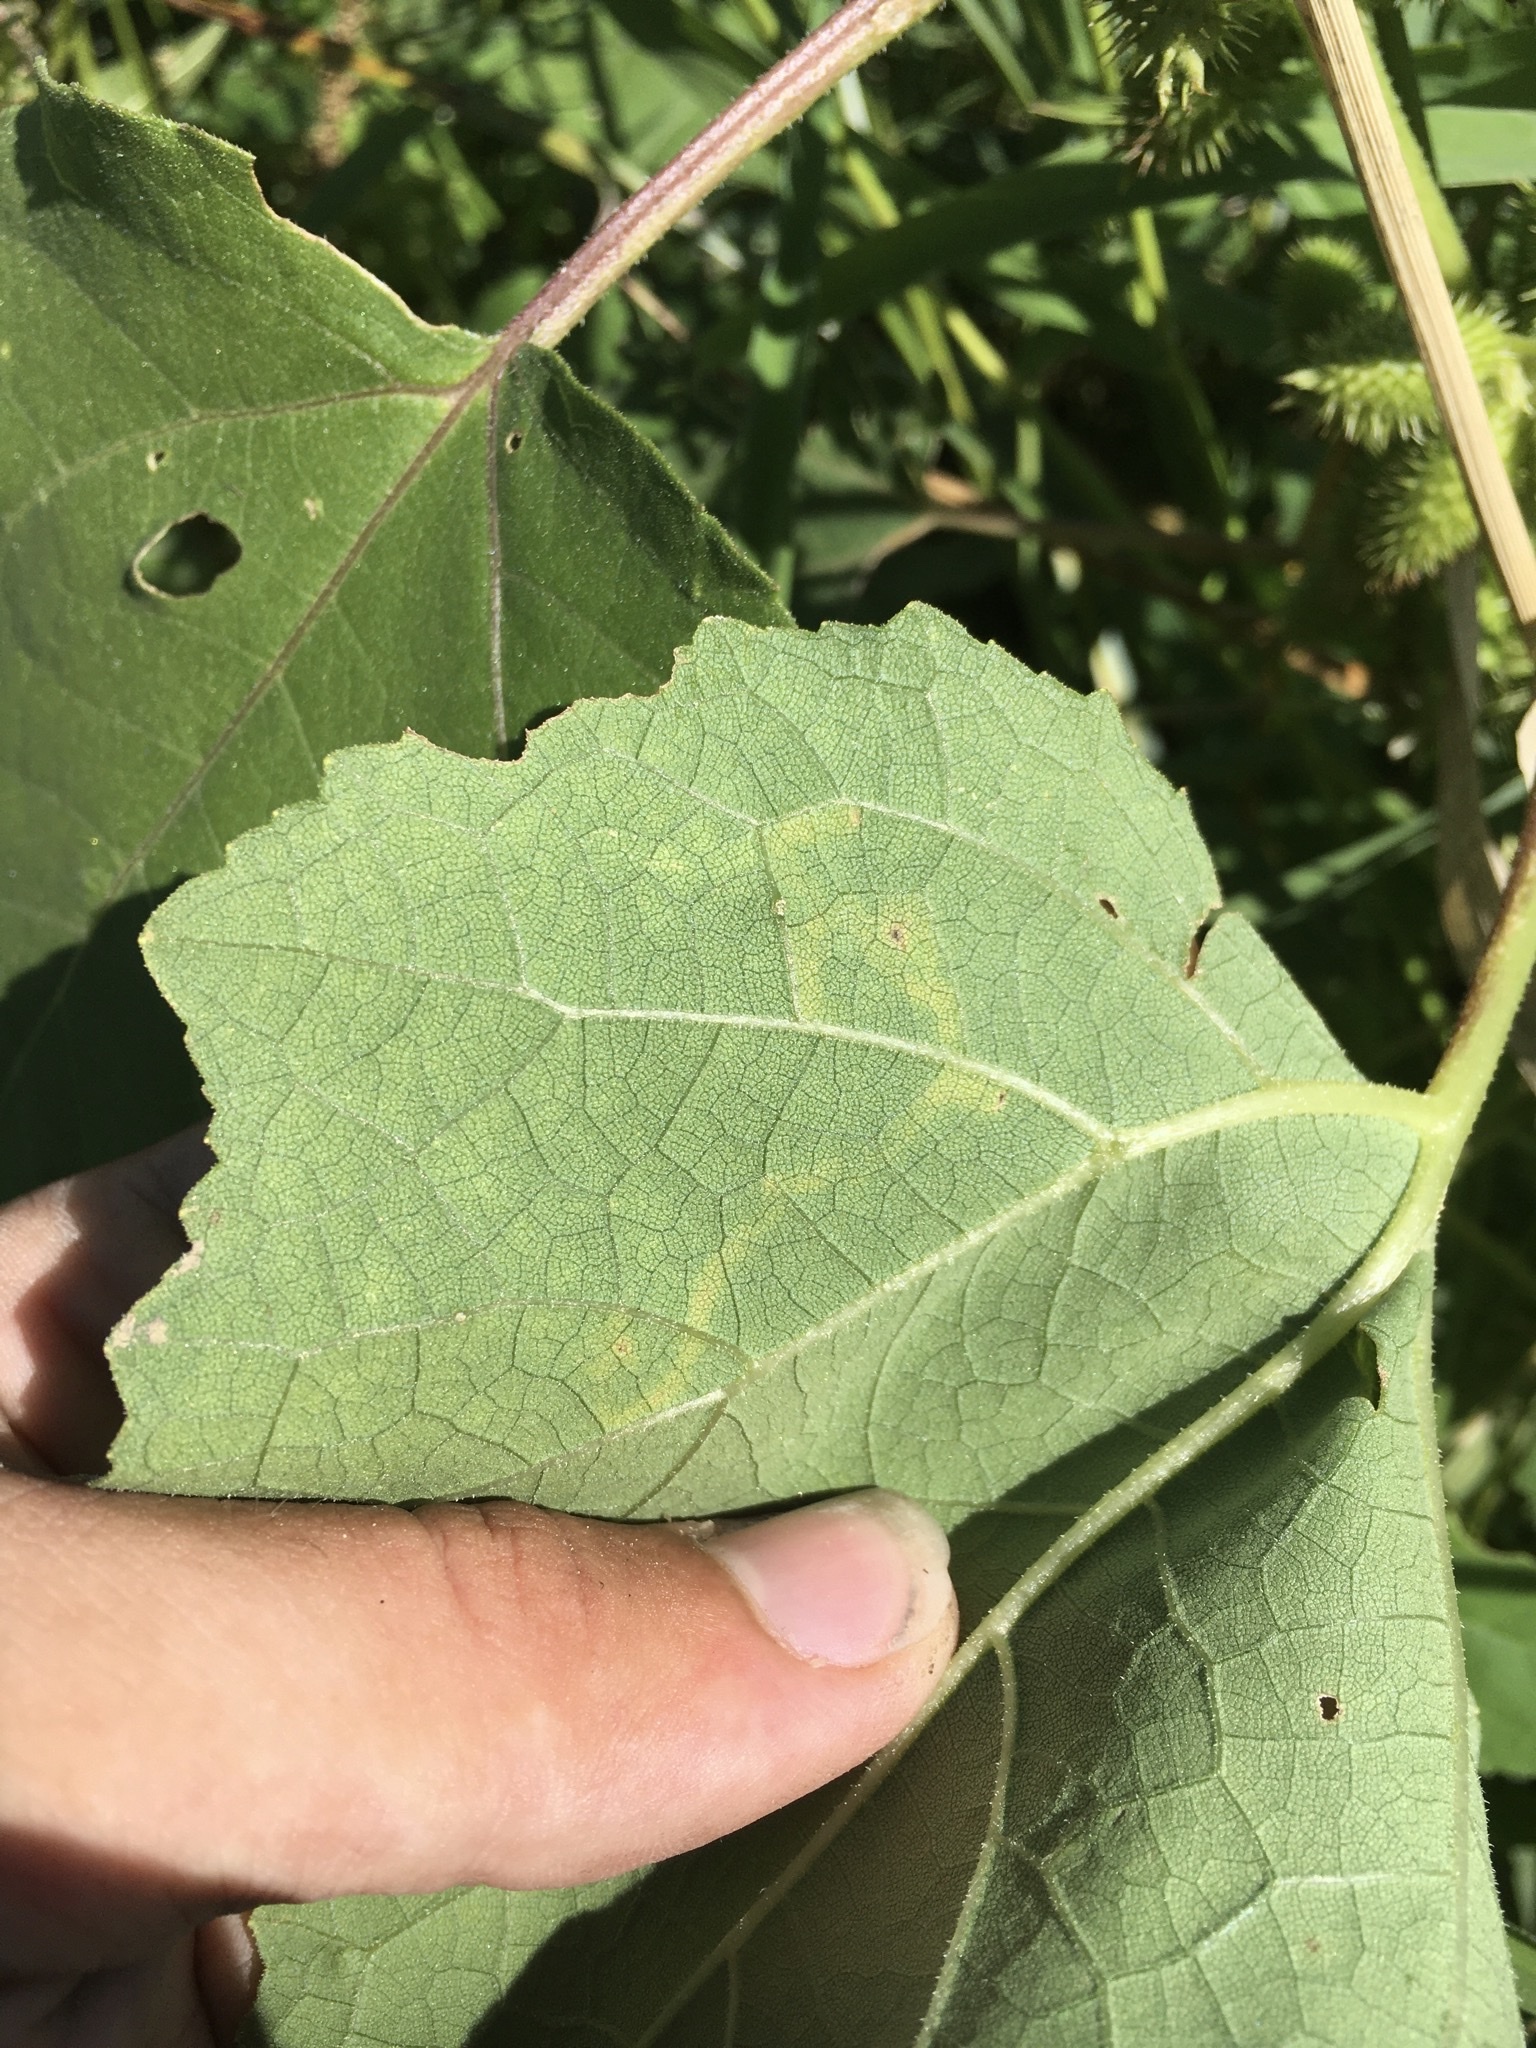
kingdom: Animalia
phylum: Arthropoda
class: Insecta
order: Diptera
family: Agromyzidae
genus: Liriomyza
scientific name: Liriomyza eupatorii
